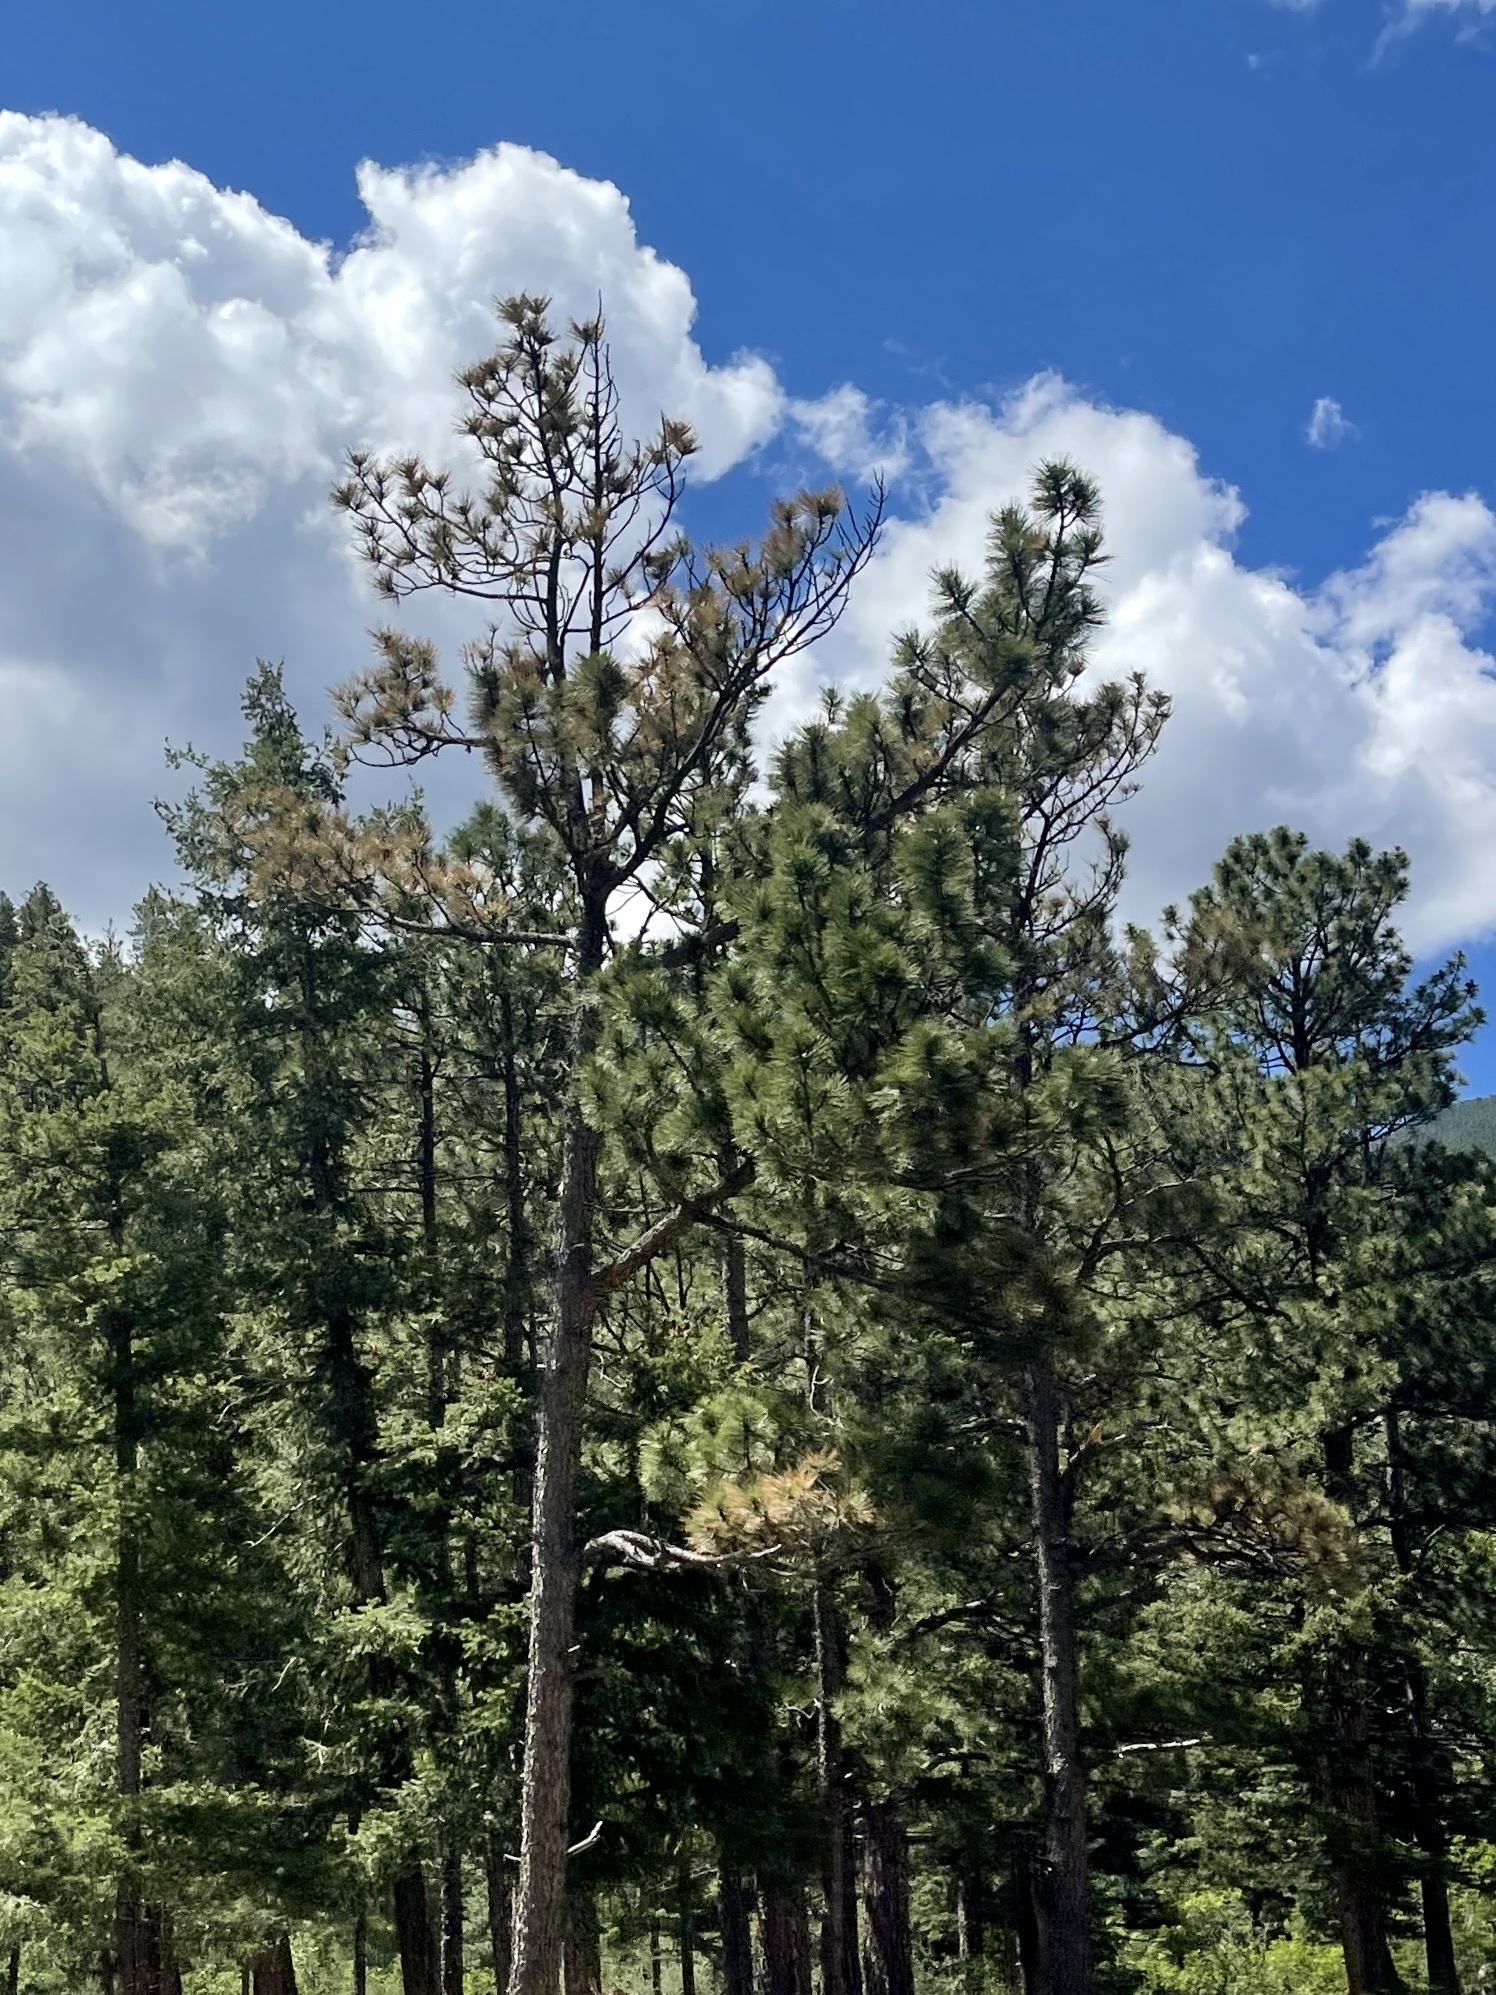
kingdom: Plantae
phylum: Tracheophyta
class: Pinopsida
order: Pinales
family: Pinaceae
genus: Pinus
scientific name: Pinus ponderosa
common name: Western yellow-pine
